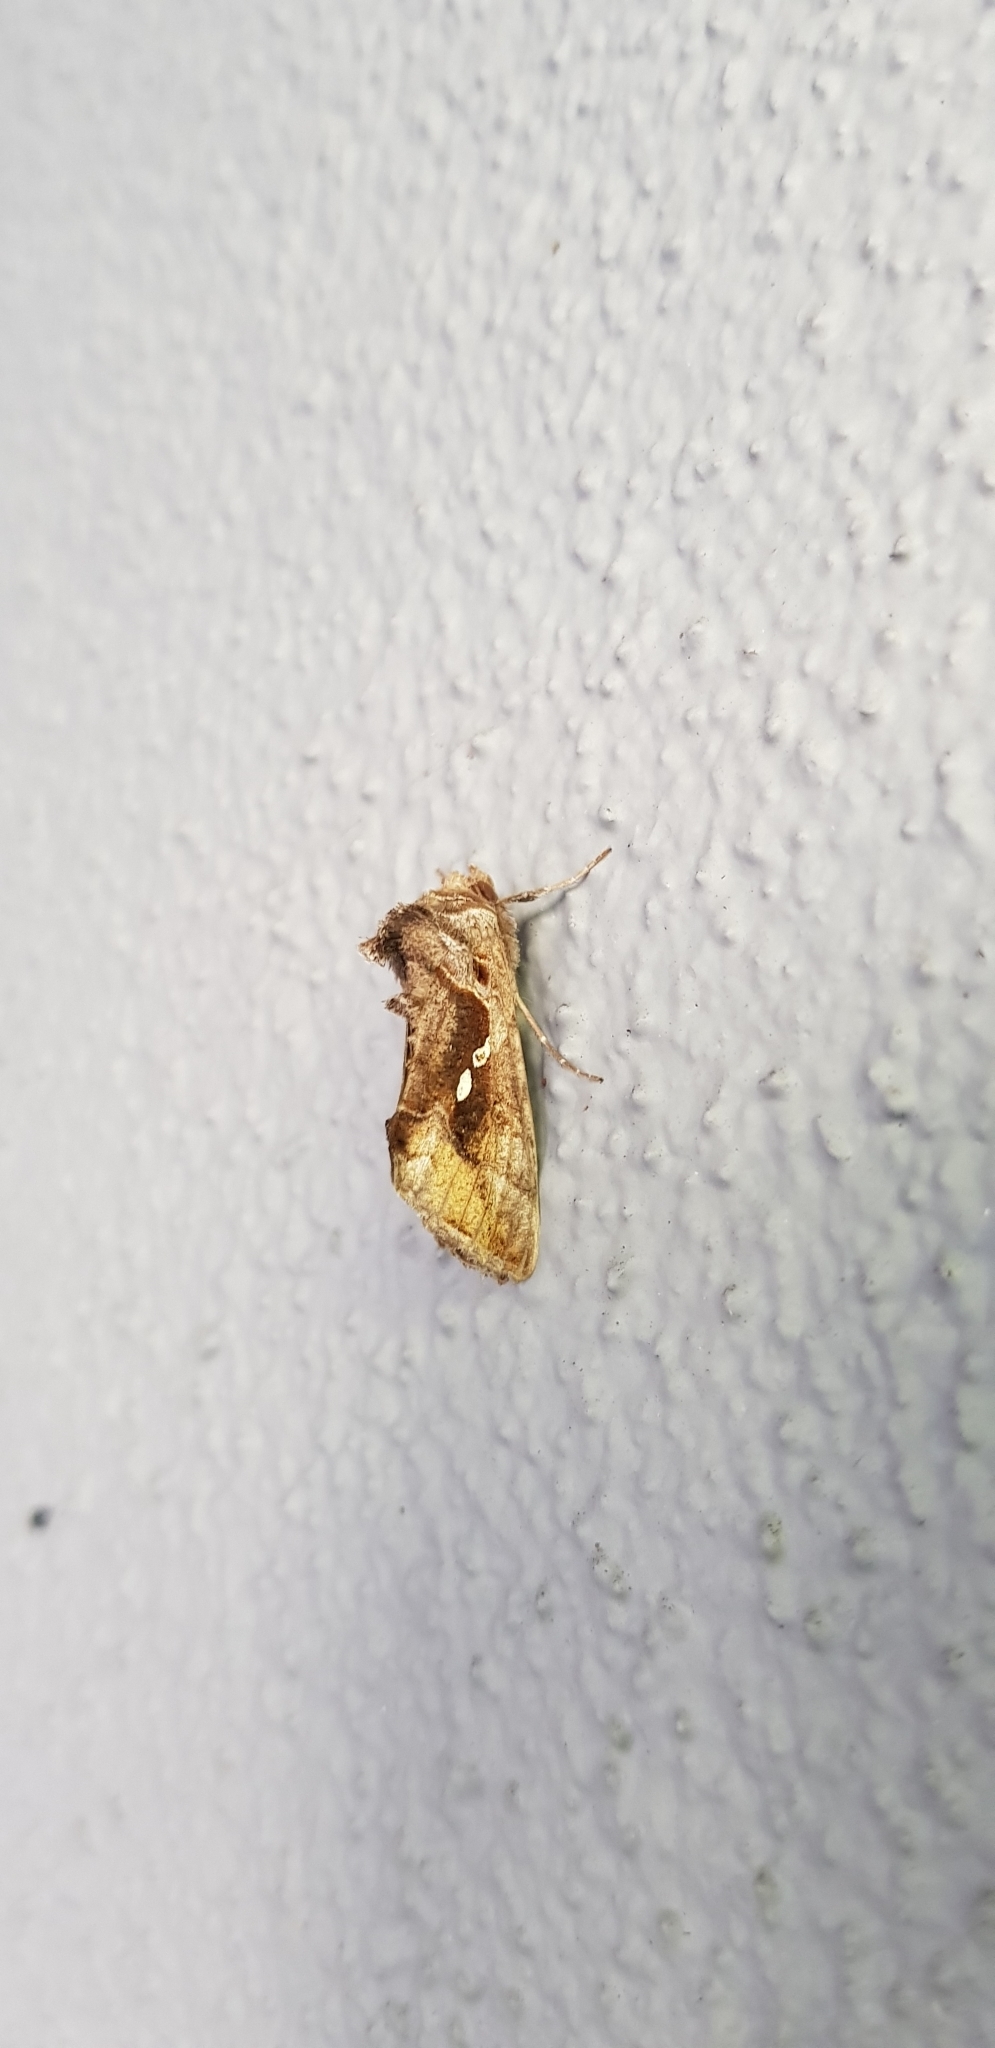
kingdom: Animalia
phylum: Arthropoda
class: Insecta
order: Lepidoptera
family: Noctuidae
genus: Chrysodeixis
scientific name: Chrysodeixis eriosoma
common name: Green garden looper
